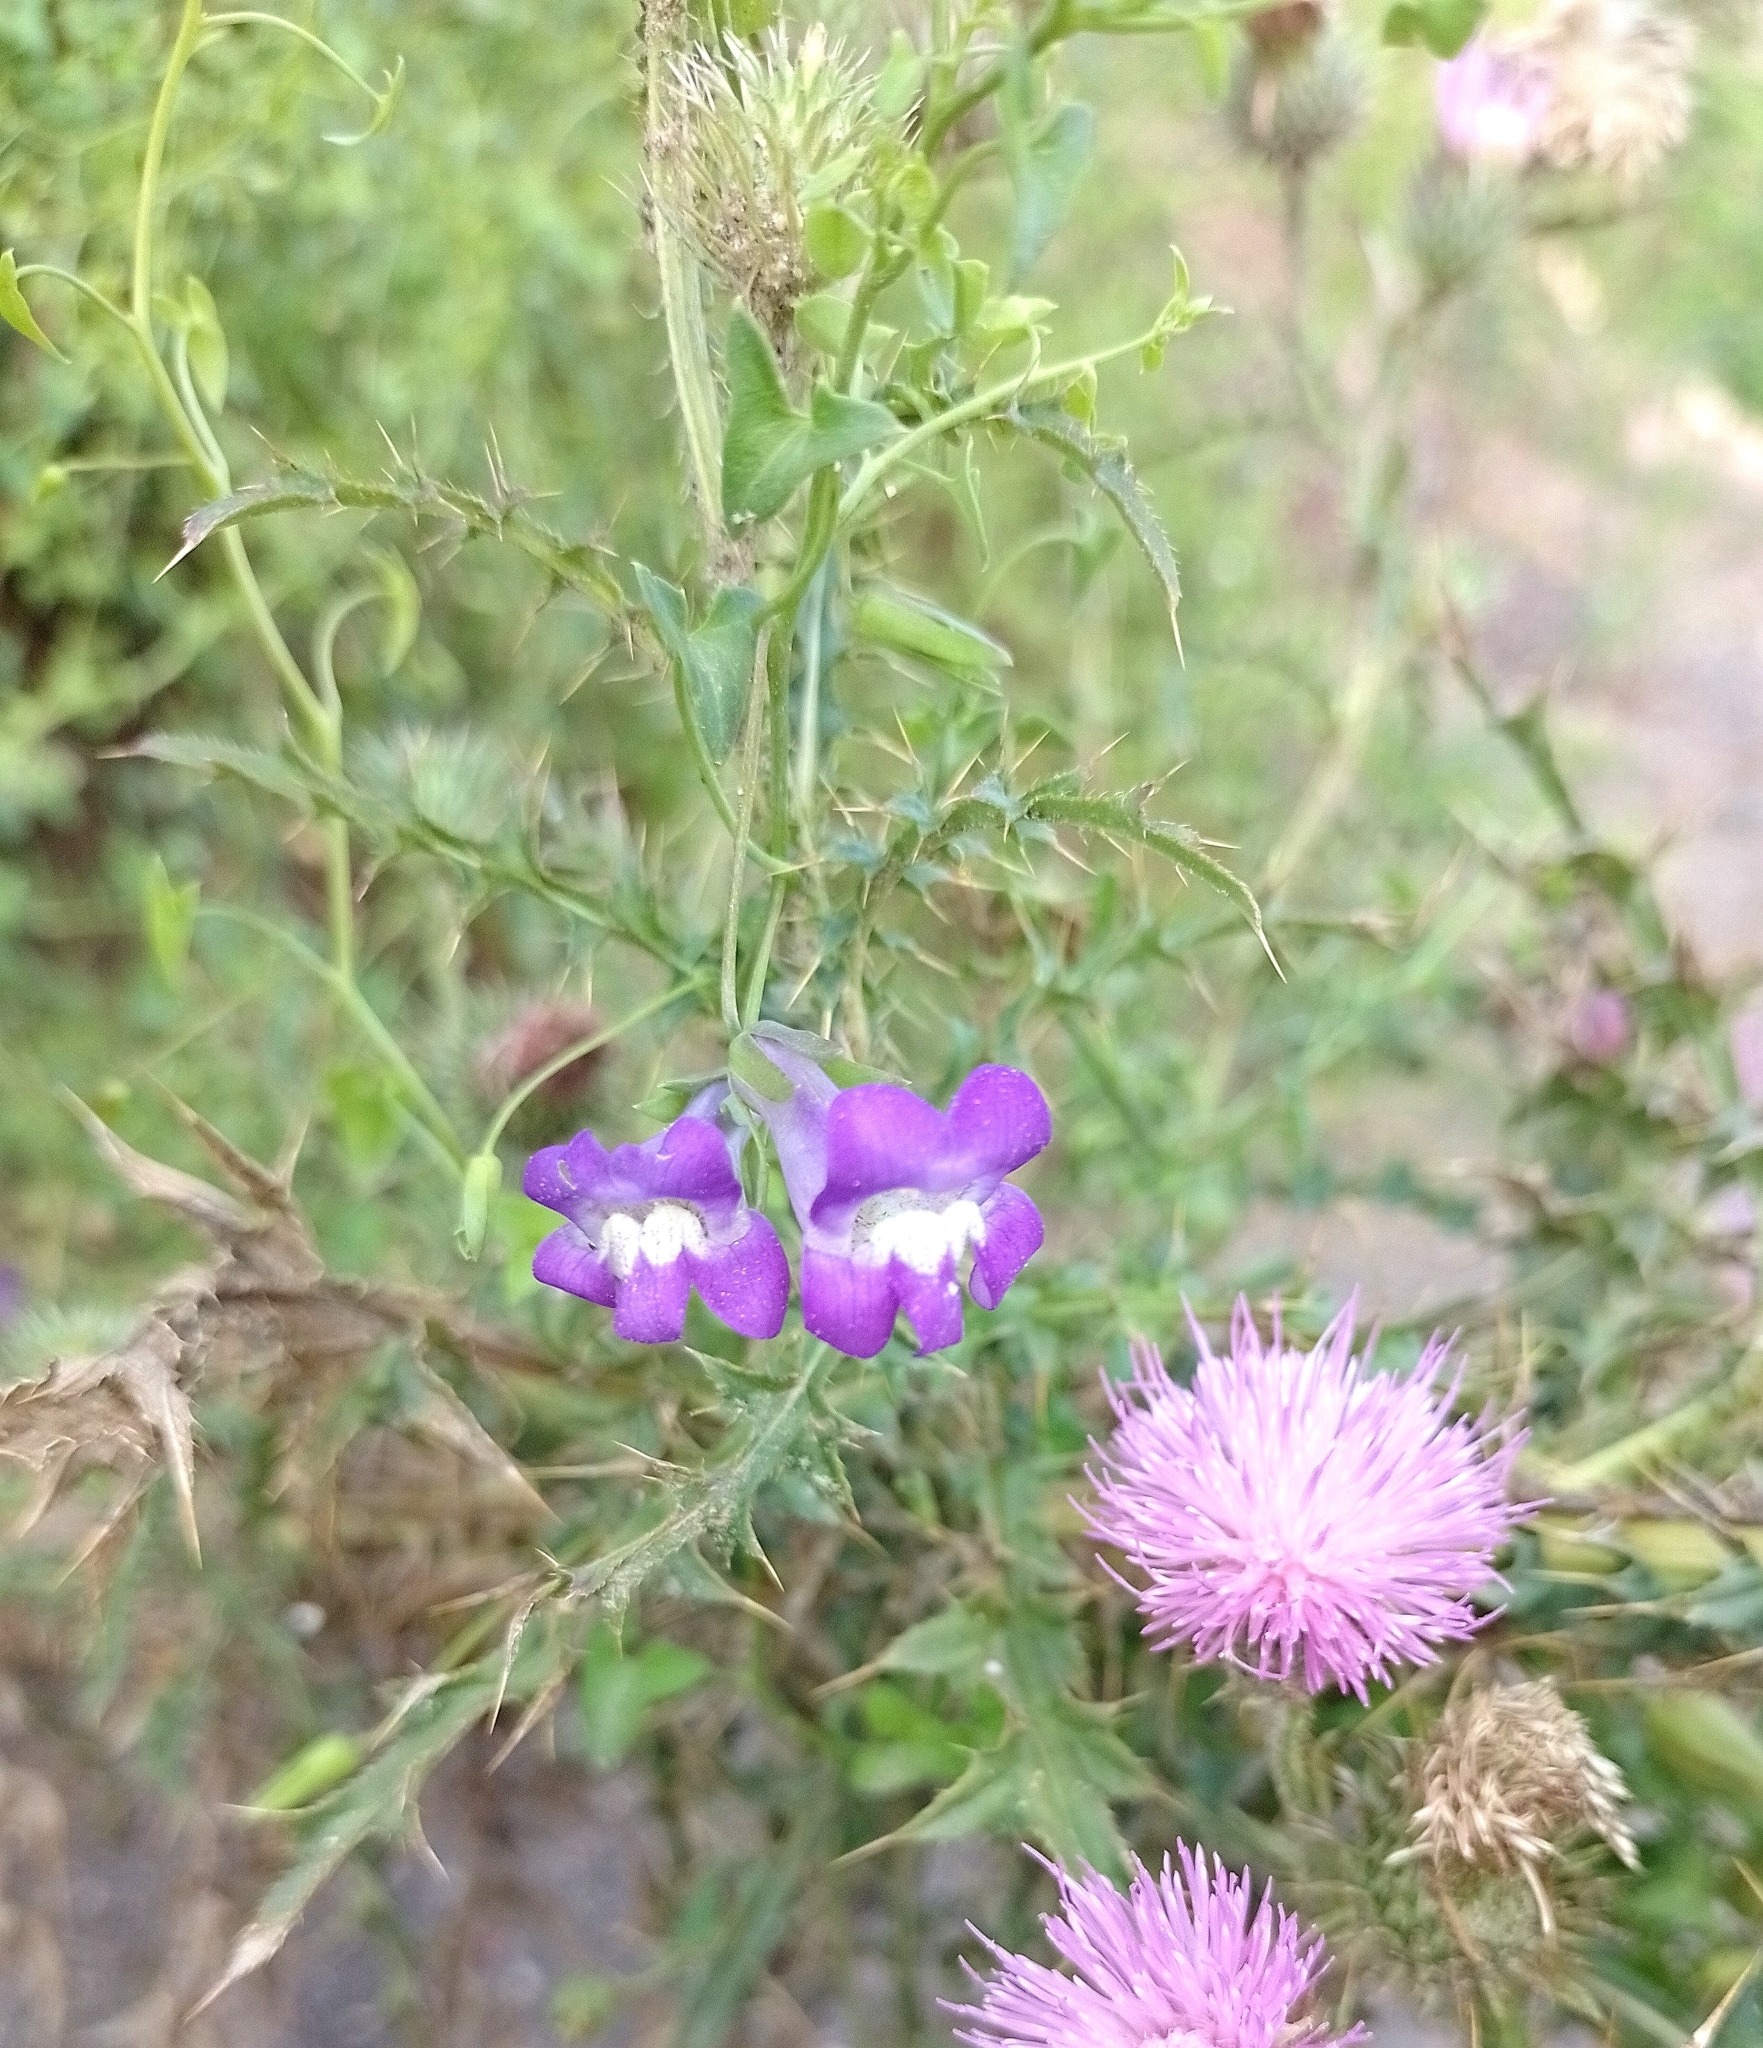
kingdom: Plantae
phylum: Tracheophyta
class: Magnoliopsida
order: Lamiales
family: Plantaginaceae
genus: Maurandella
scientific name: Maurandella antirrhiniflora
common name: Violet twining-snapdragon
